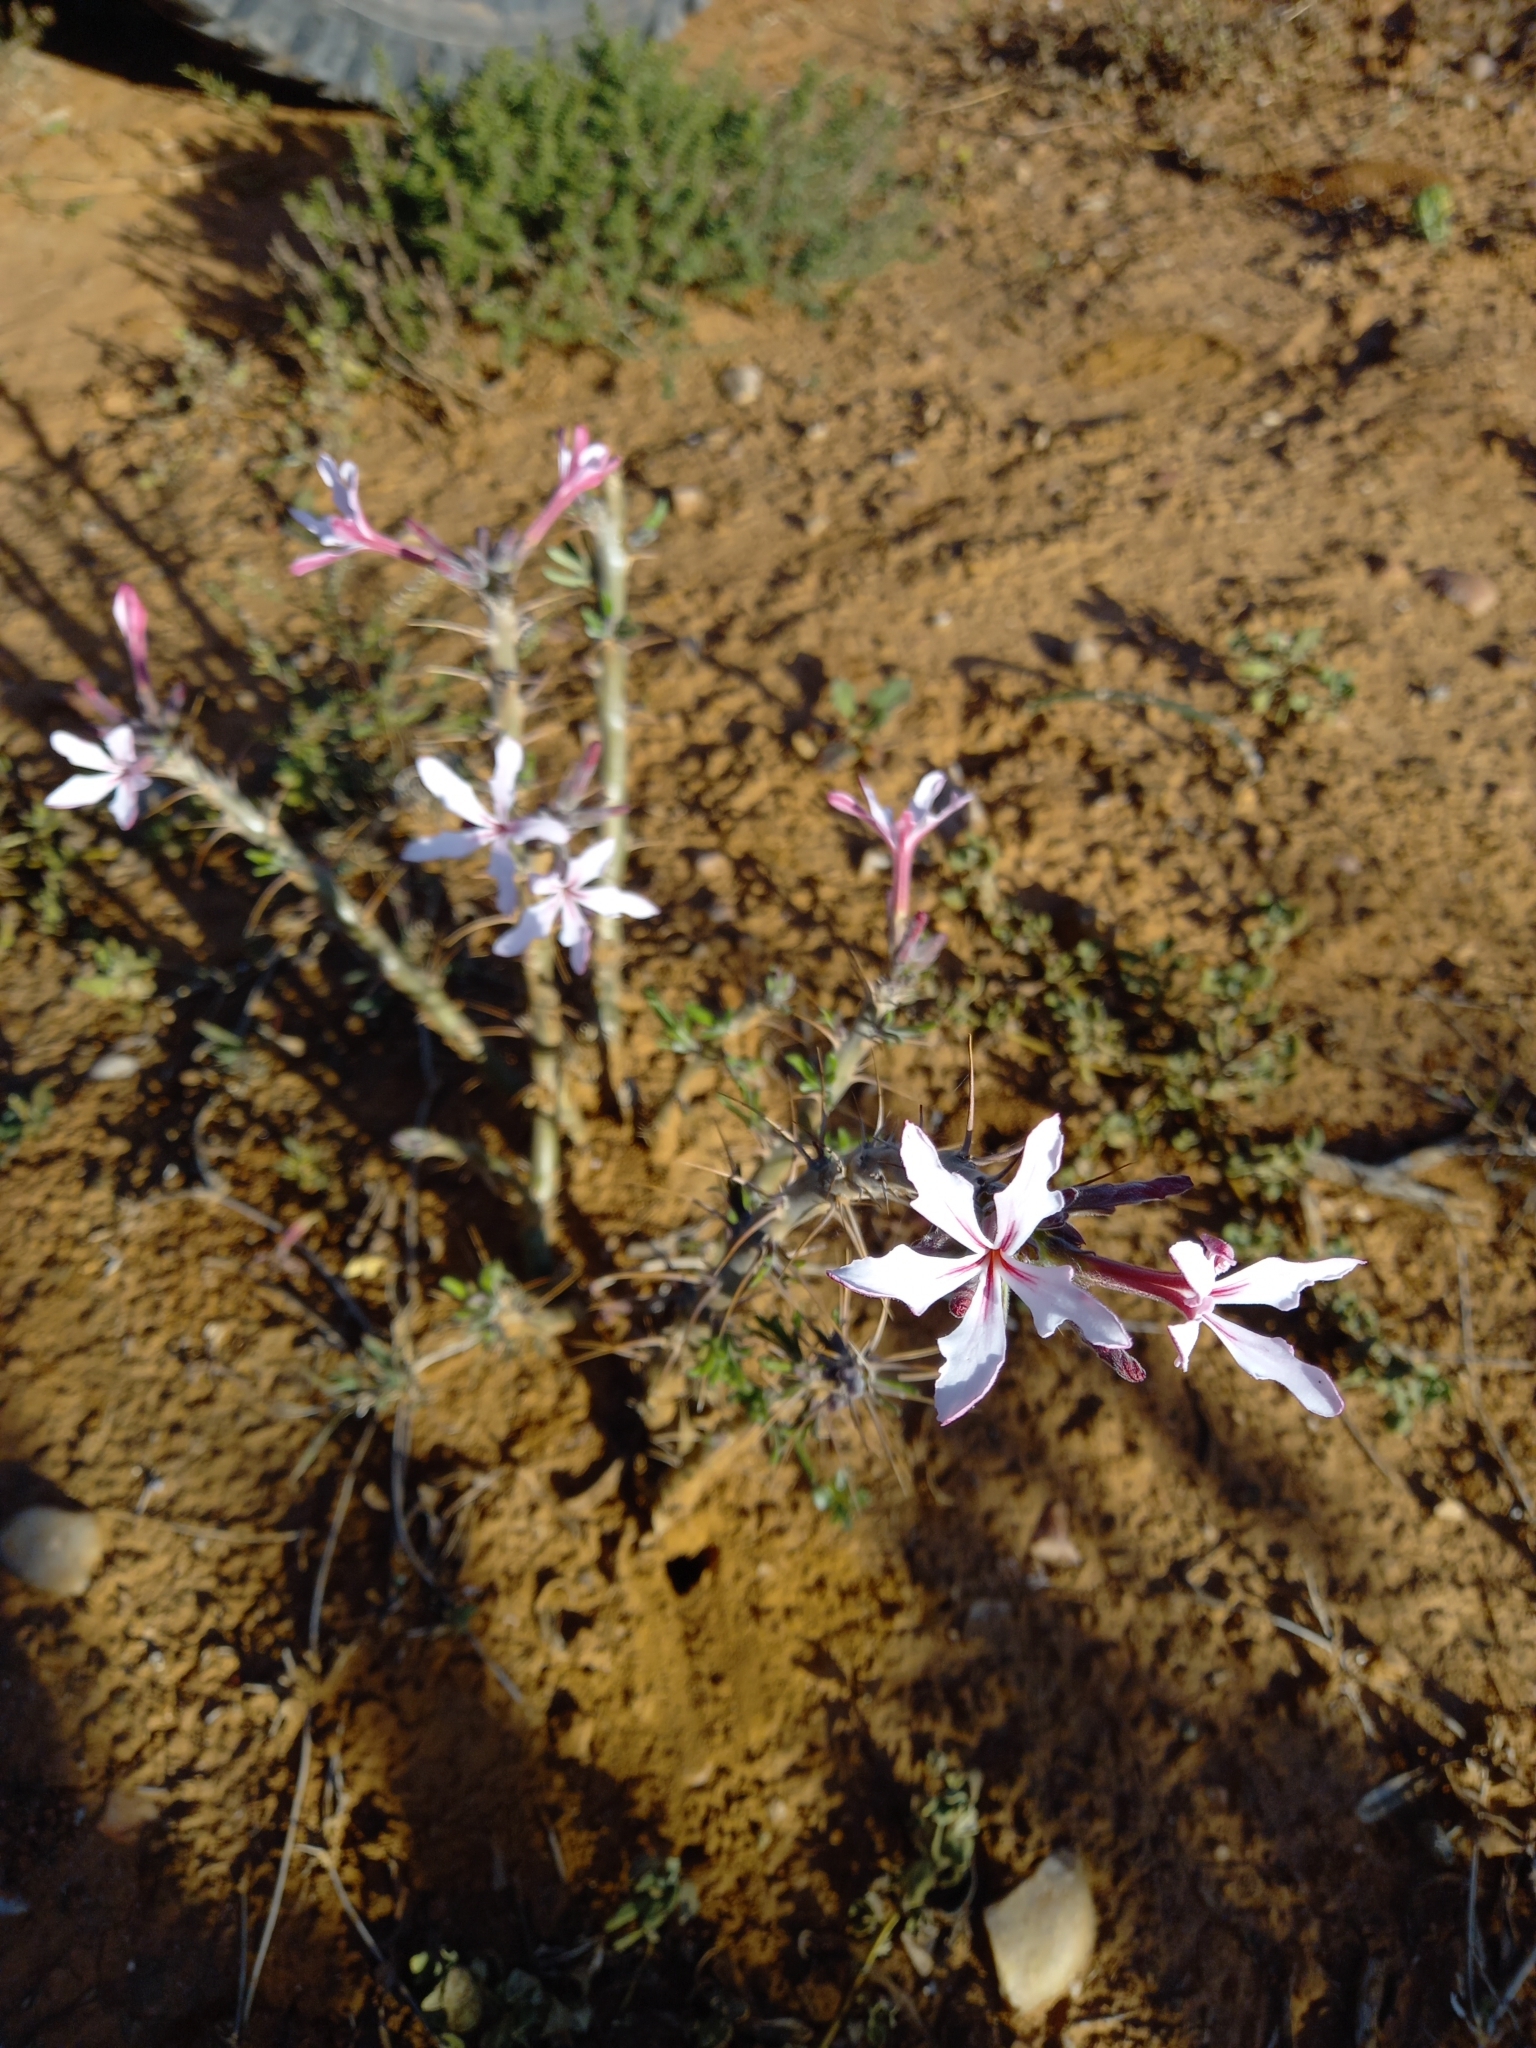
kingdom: Plantae
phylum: Tracheophyta
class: Magnoliopsida
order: Gentianales
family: Apocynaceae
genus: Pachypodium
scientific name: Pachypodium succulentum
